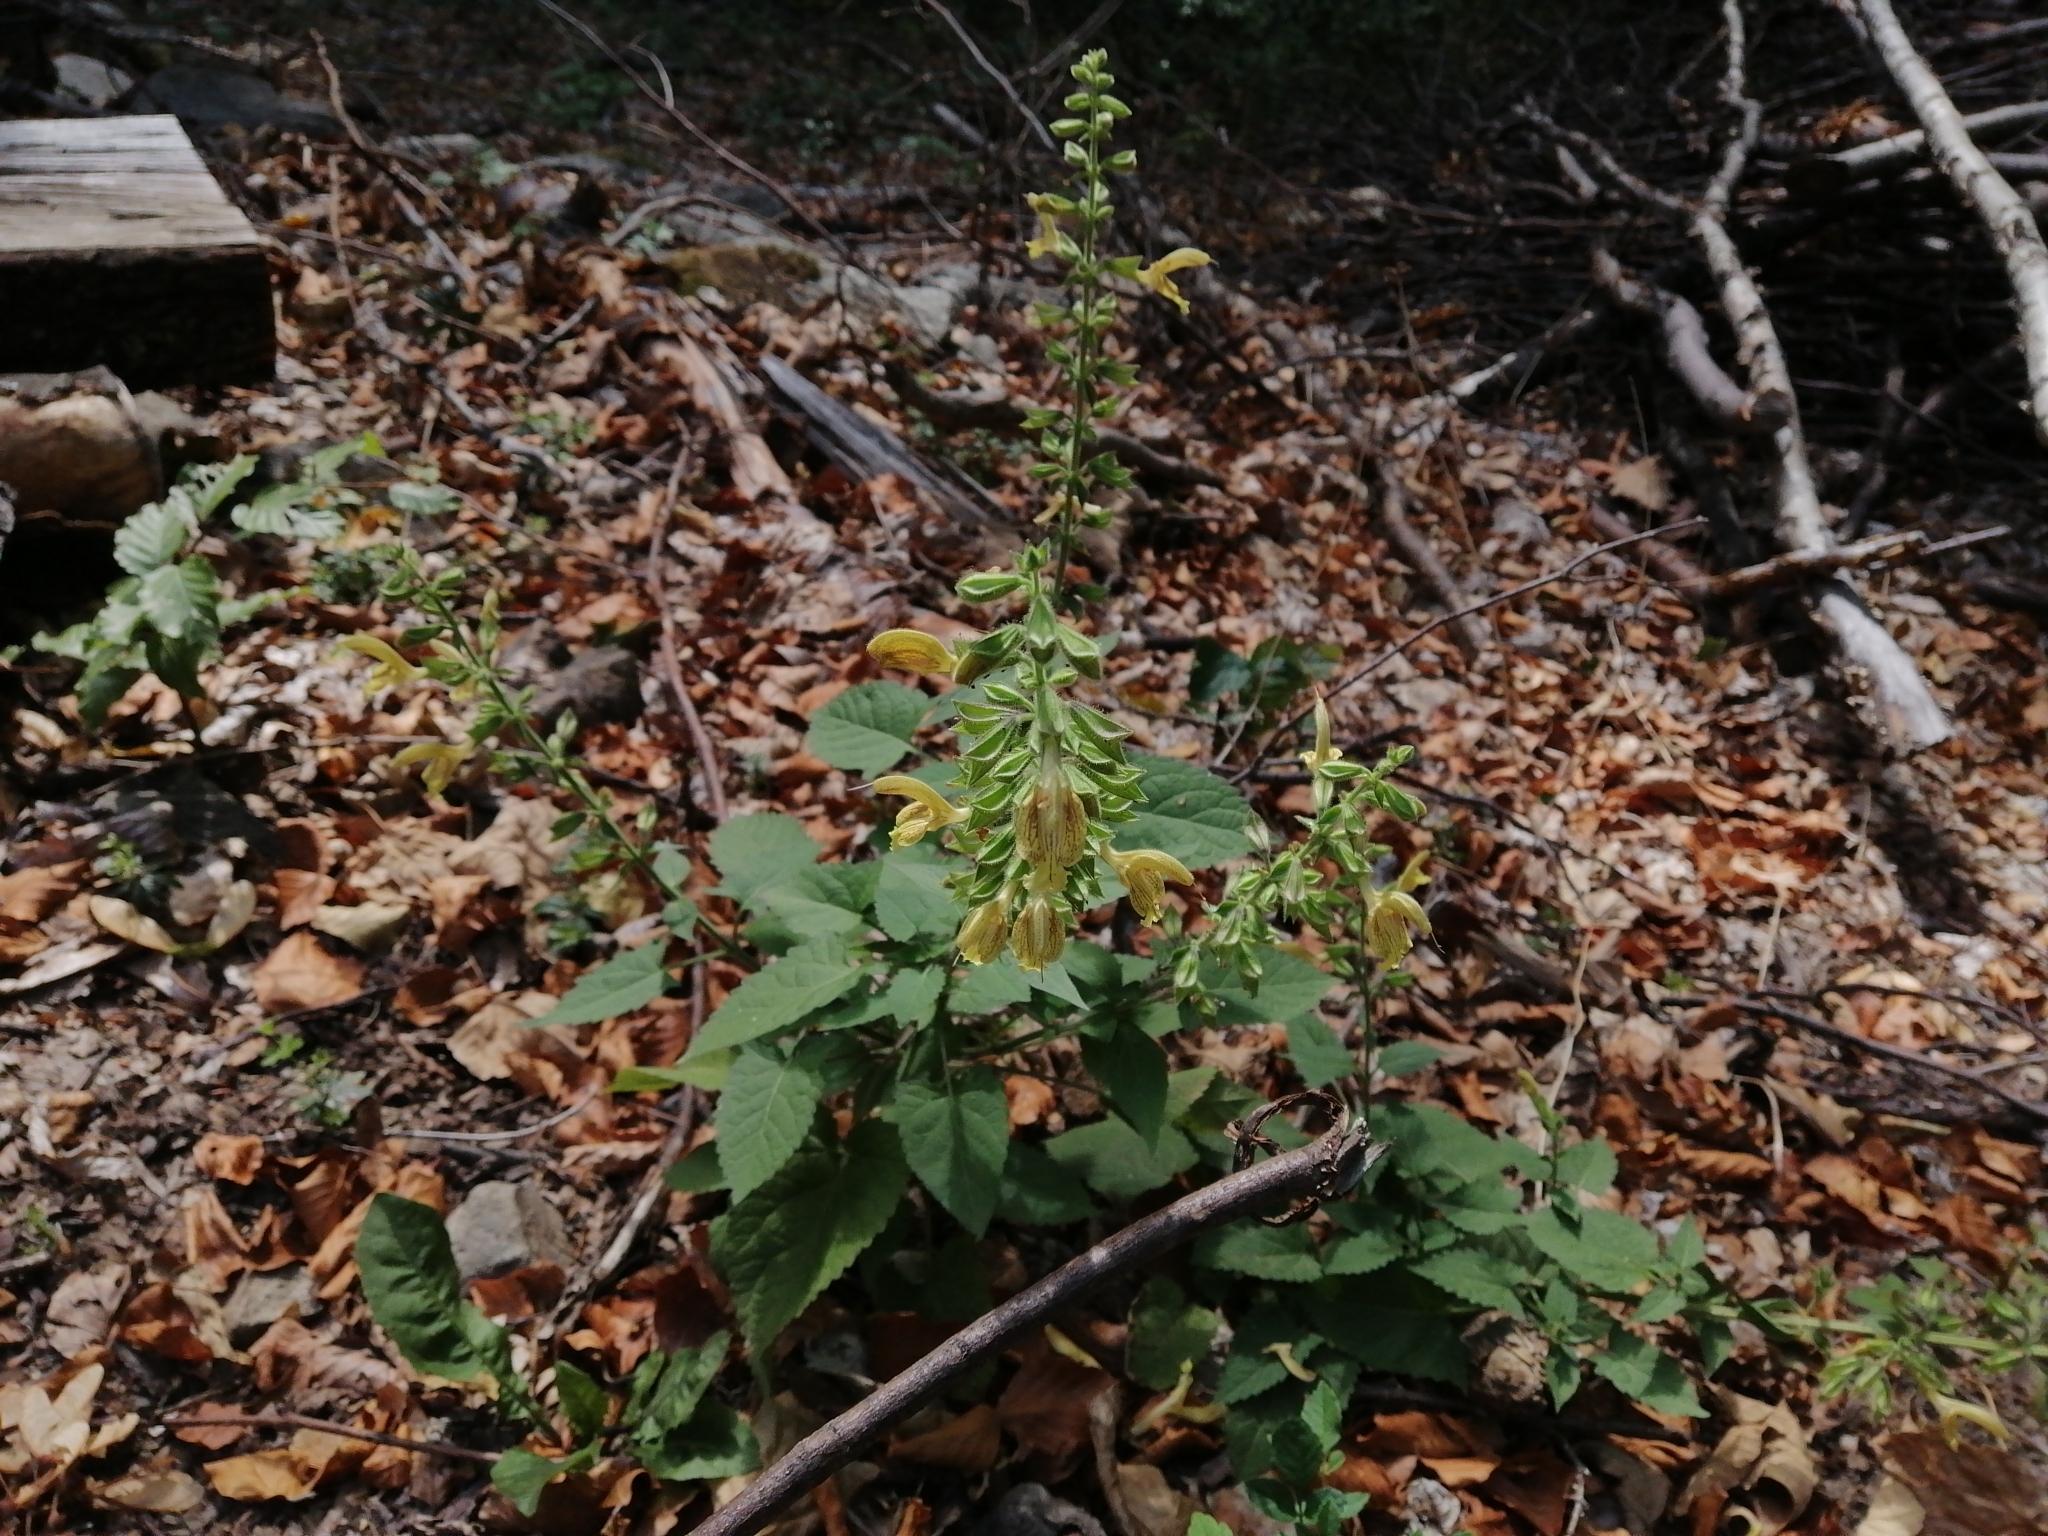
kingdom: Plantae
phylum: Tracheophyta
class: Magnoliopsida
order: Lamiales
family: Lamiaceae
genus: Salvia
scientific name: Salvia glutinosa
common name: Sticky clary
